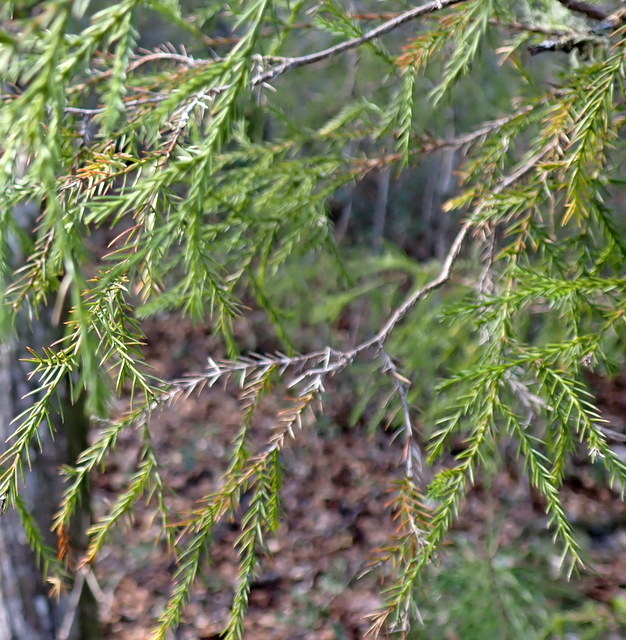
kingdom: Plantae
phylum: Tracheophyta
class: Pinopsida
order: Pinales
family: Cupressaceae
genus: Juniperus
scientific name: Juniperus virginiana
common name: Red juniper
